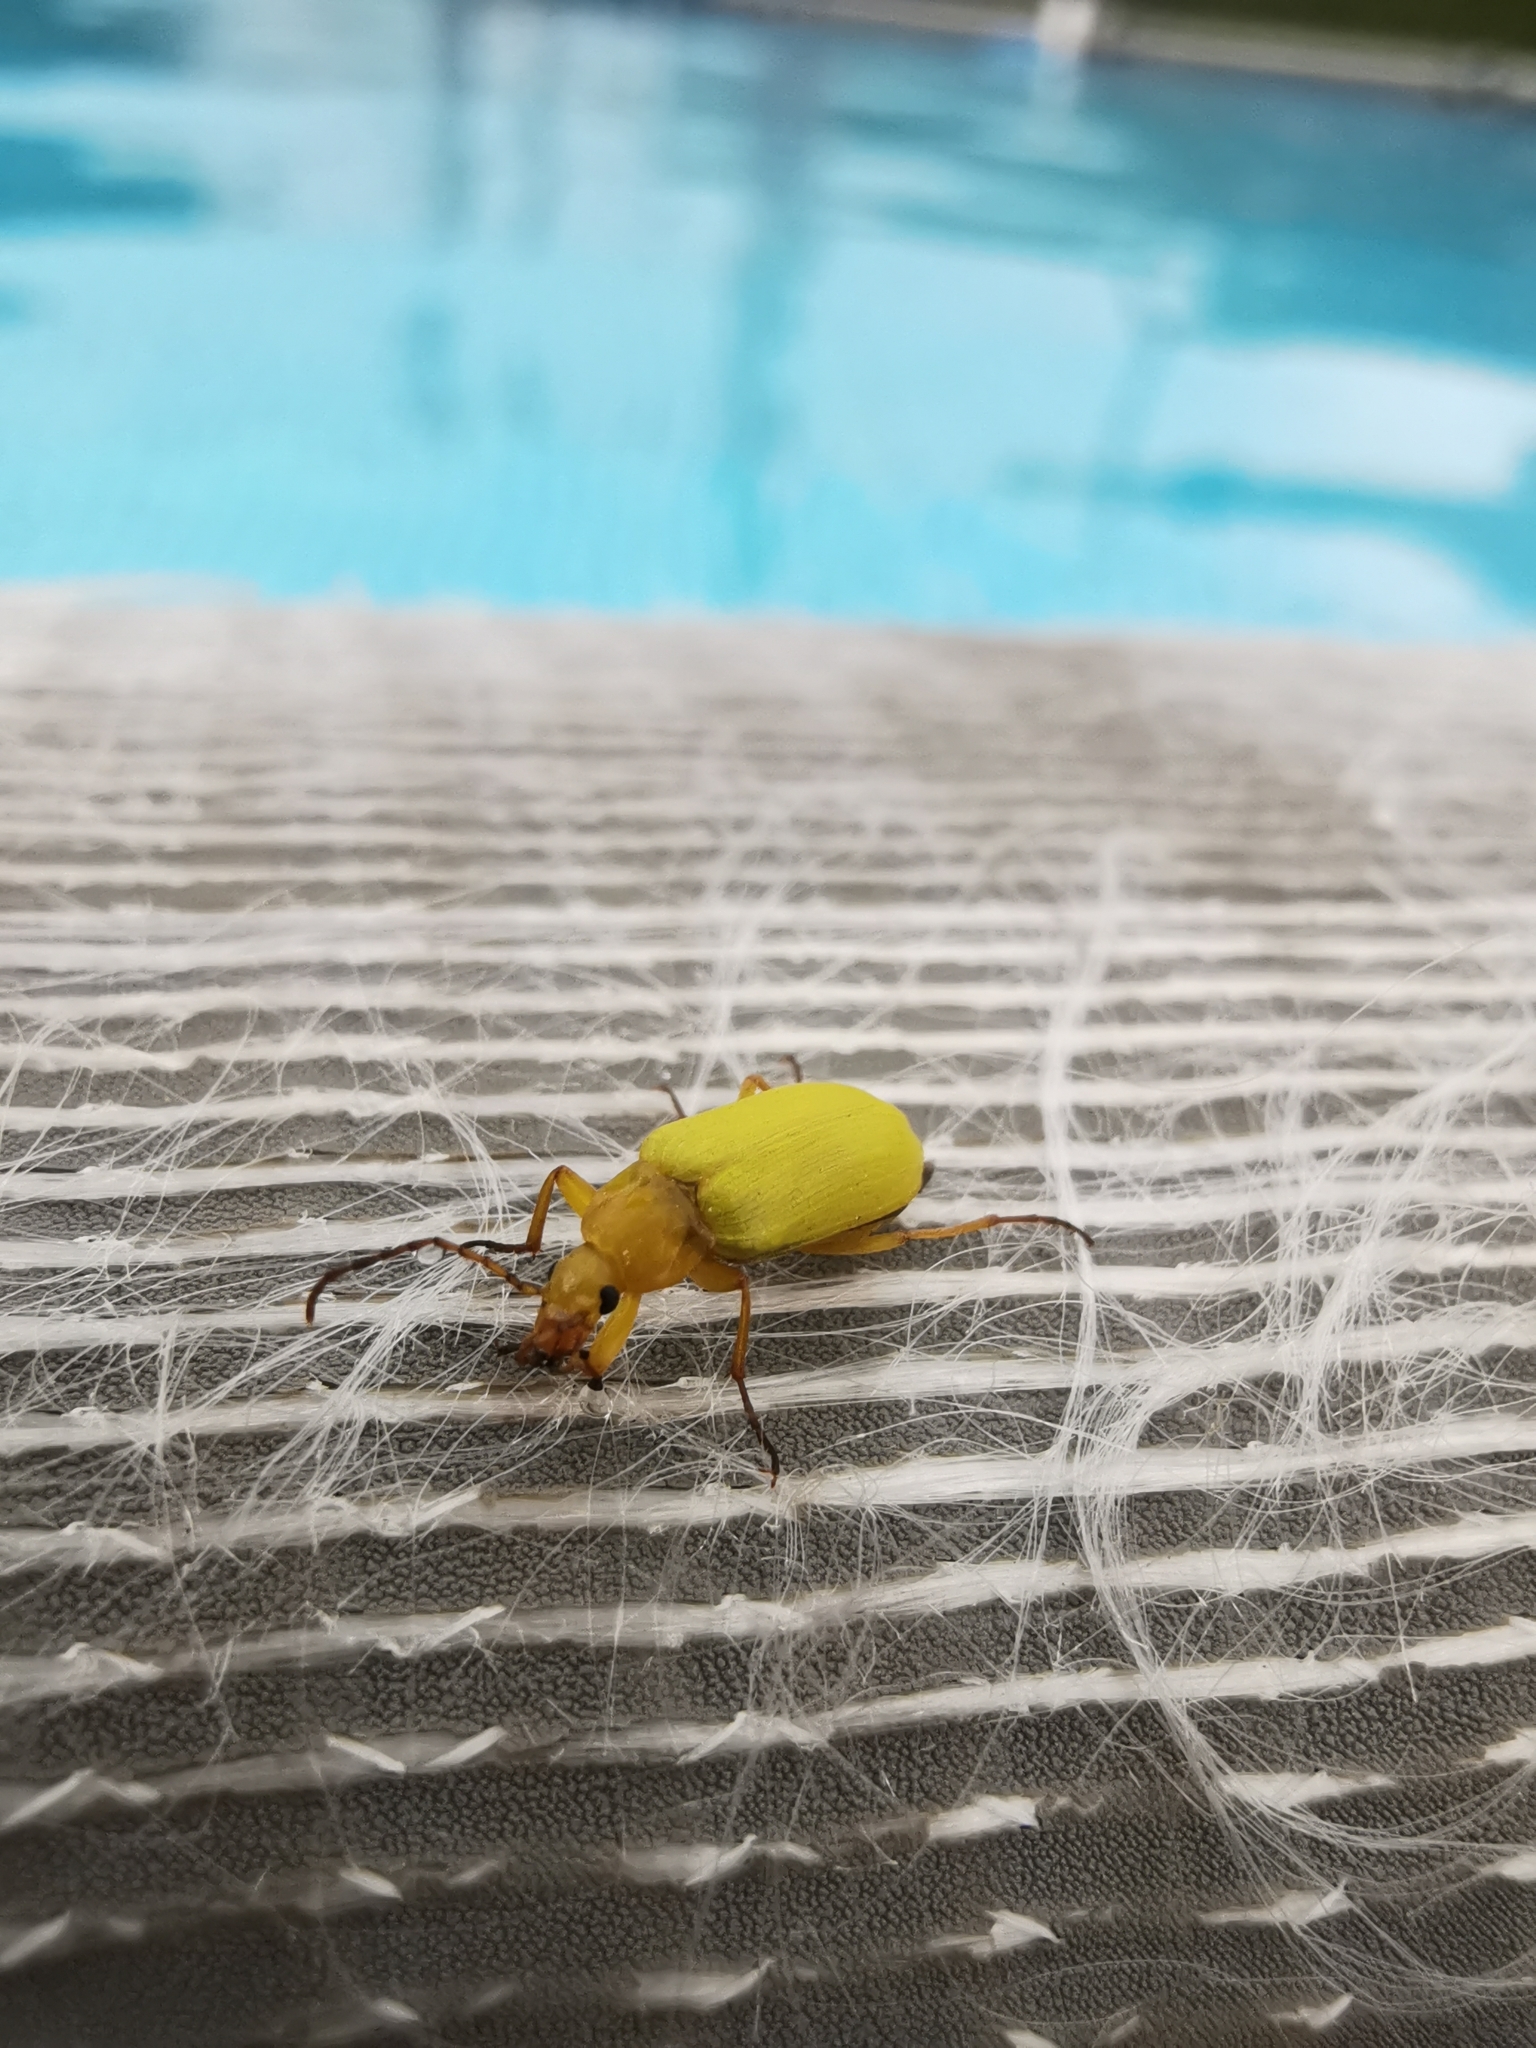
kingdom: Animalia
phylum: Arthropoda
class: Insecta
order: Coleoptera
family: Tenebrionidae
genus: Cteniopus
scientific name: Cteniopus sulphureus
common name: Sulphur beetle
